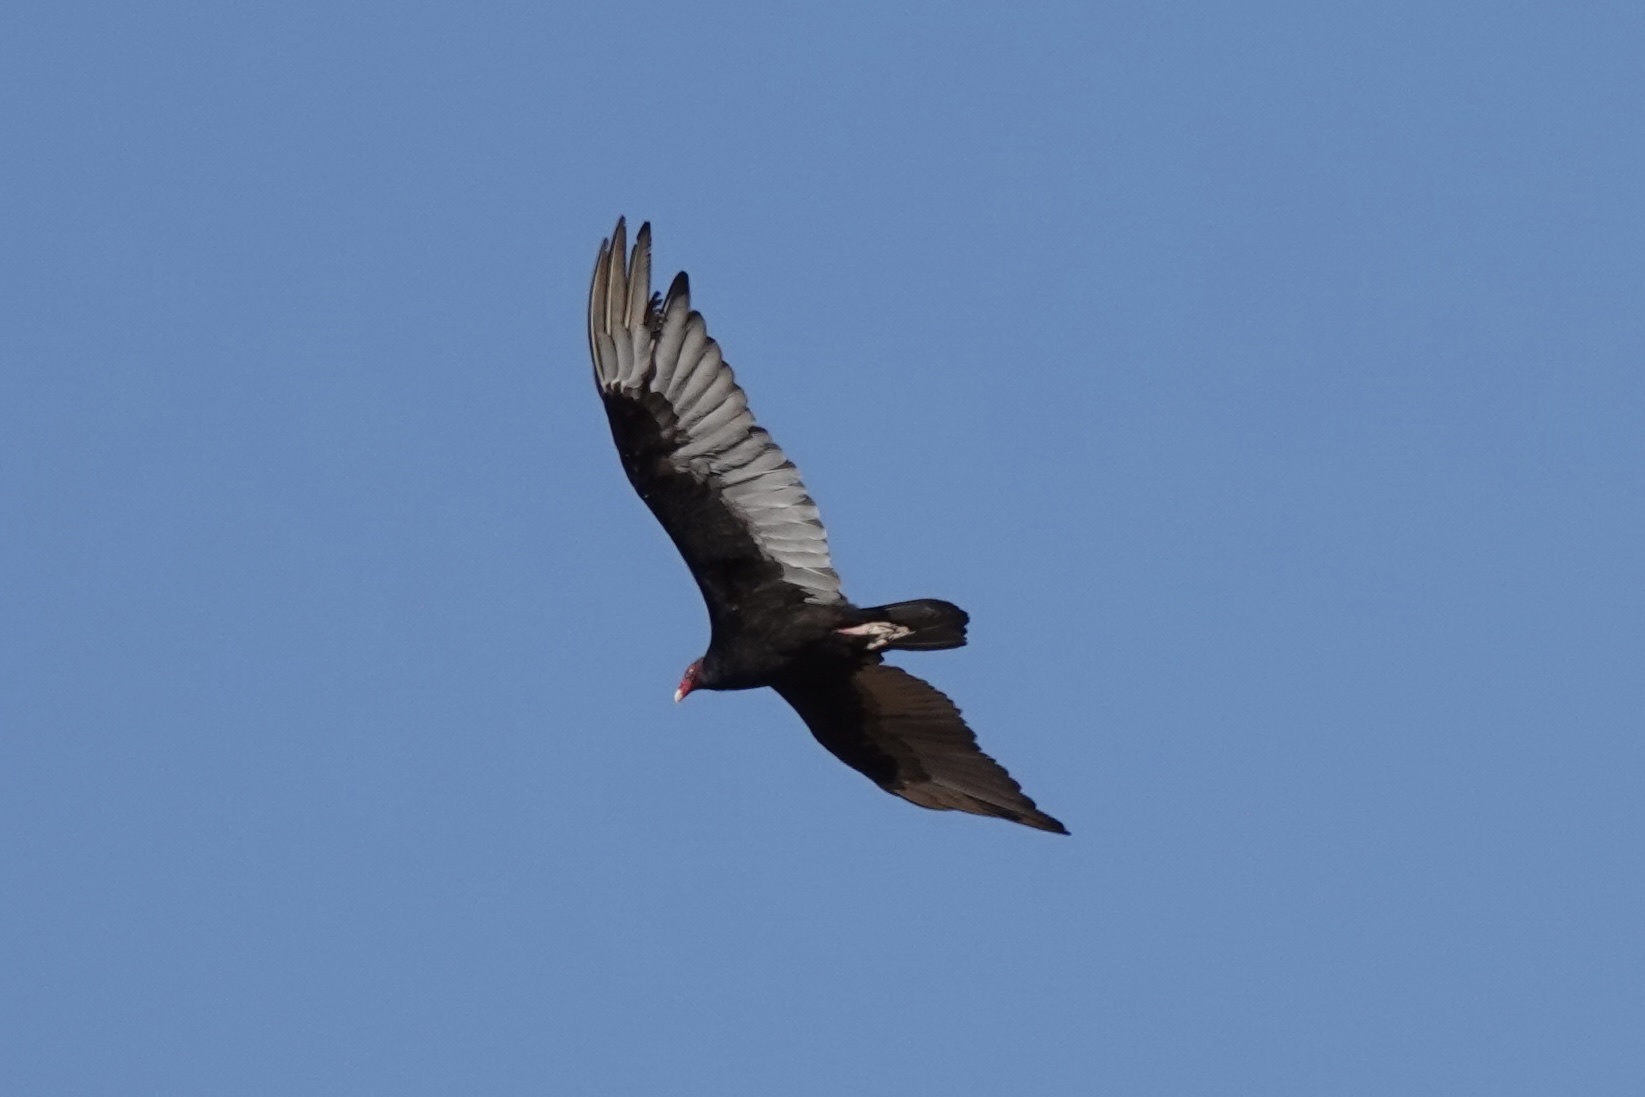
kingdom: Animalia
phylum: Chordata
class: Aves
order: Accipitriformes
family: Cathartidae
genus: Cathartes
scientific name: Cathartes aura
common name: Turkey vulture
